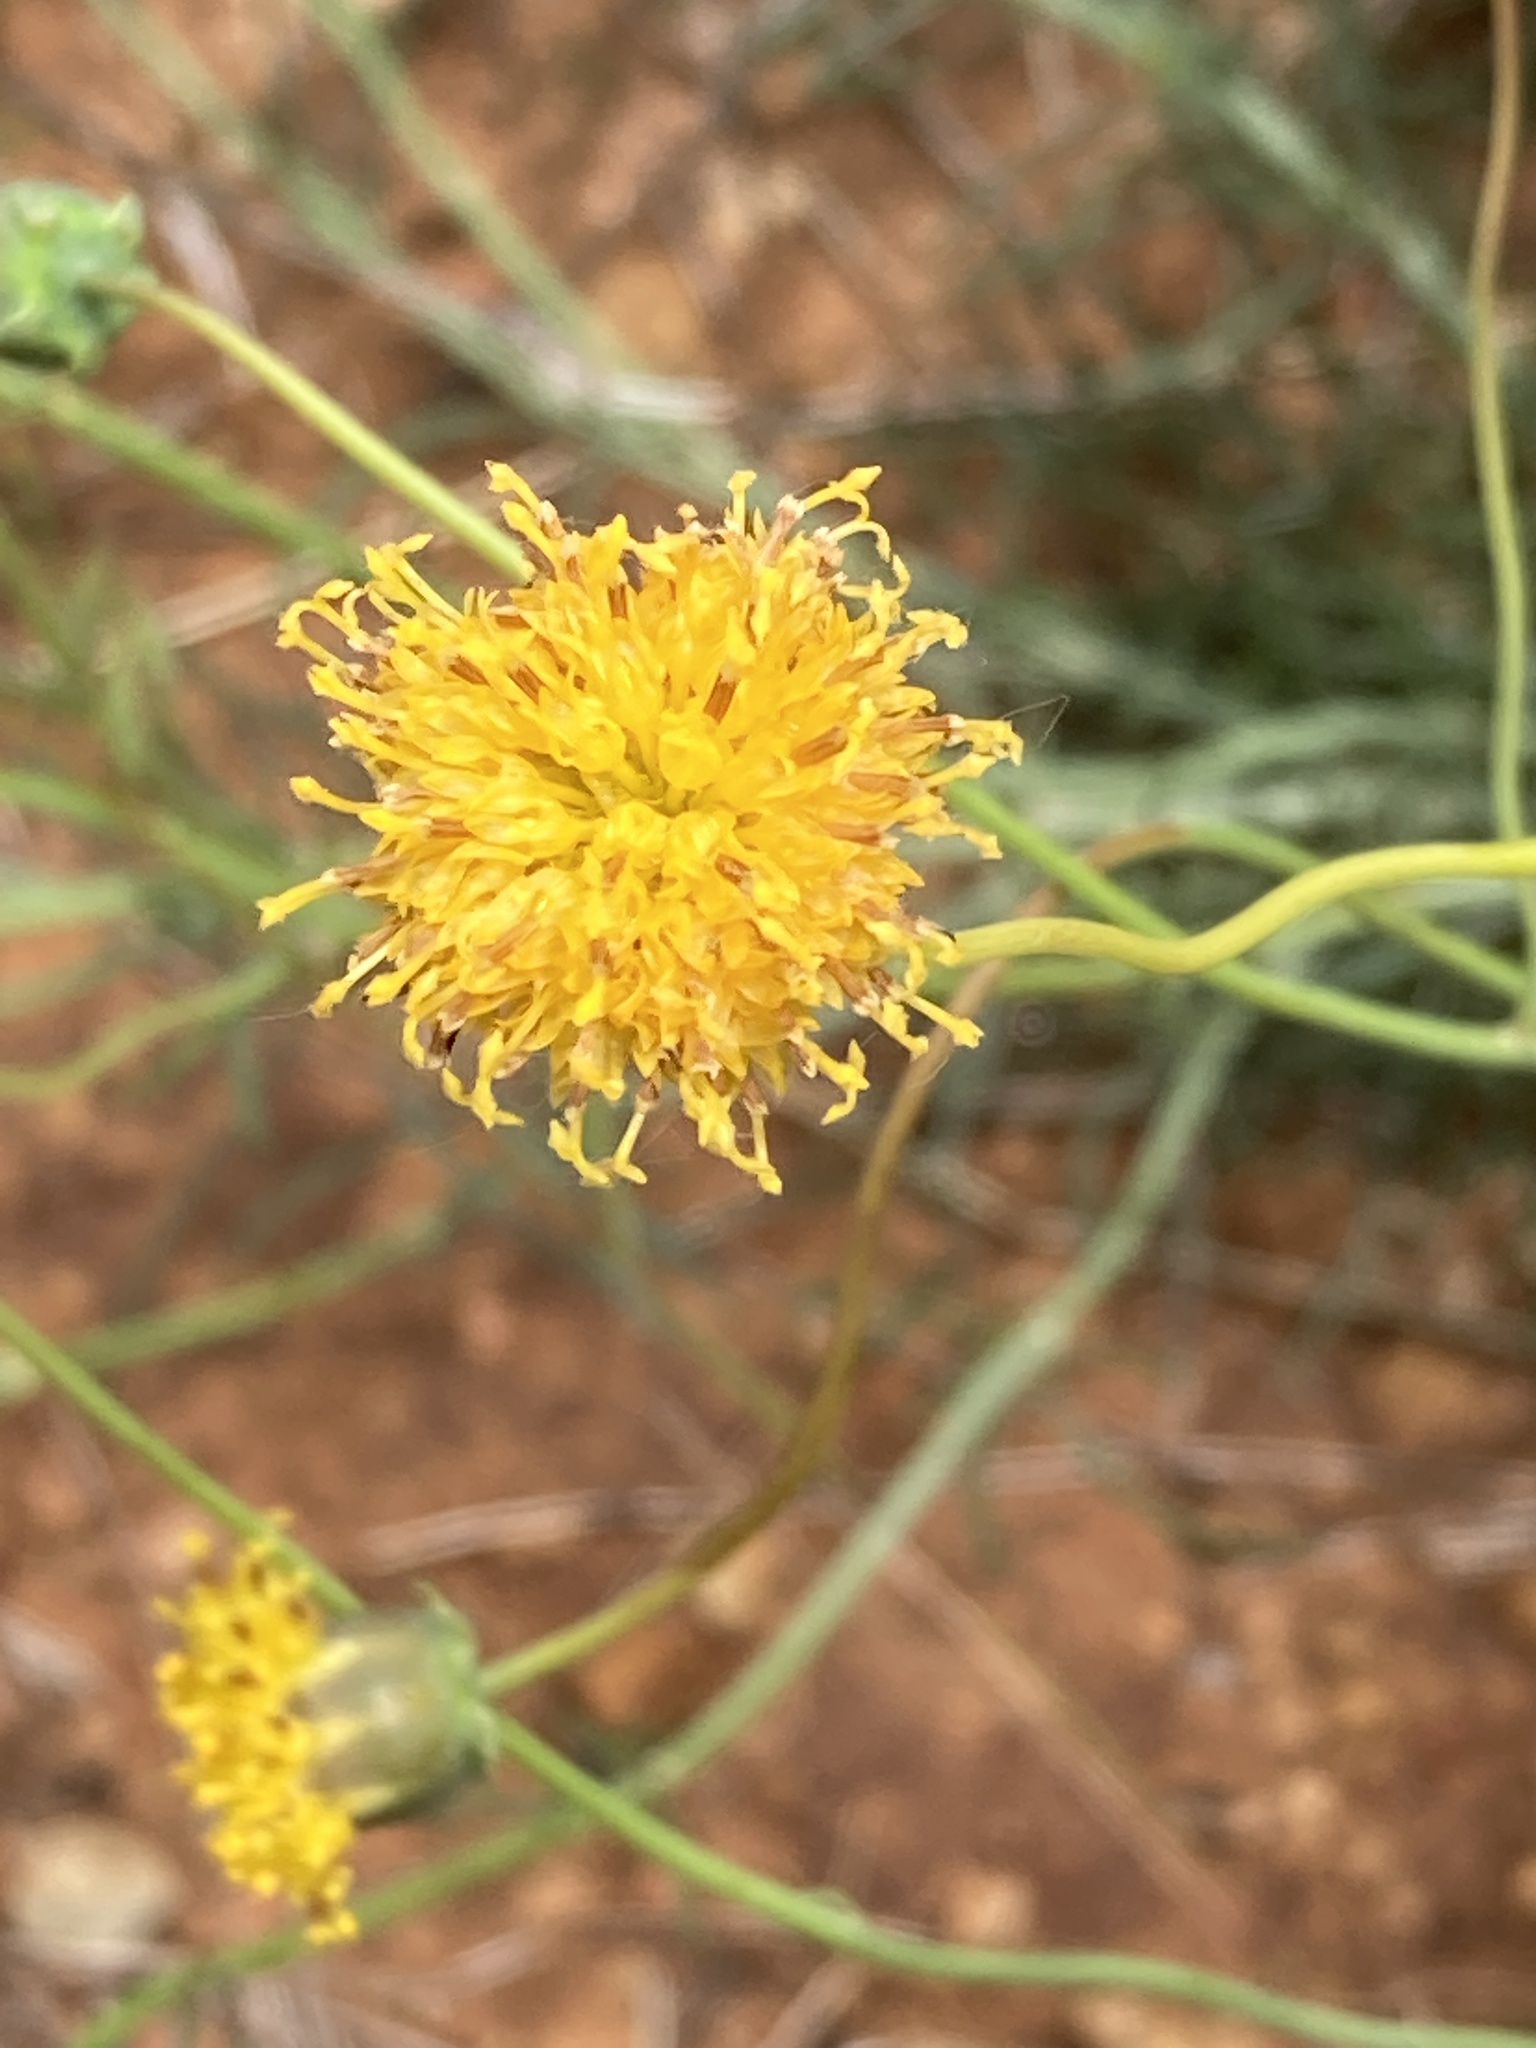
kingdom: Plantae
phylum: Tracheophyta
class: Magnoliopsida
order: Asterales
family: Asteraceae
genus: Thelesperma
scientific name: Thelesperma megapotamicum
